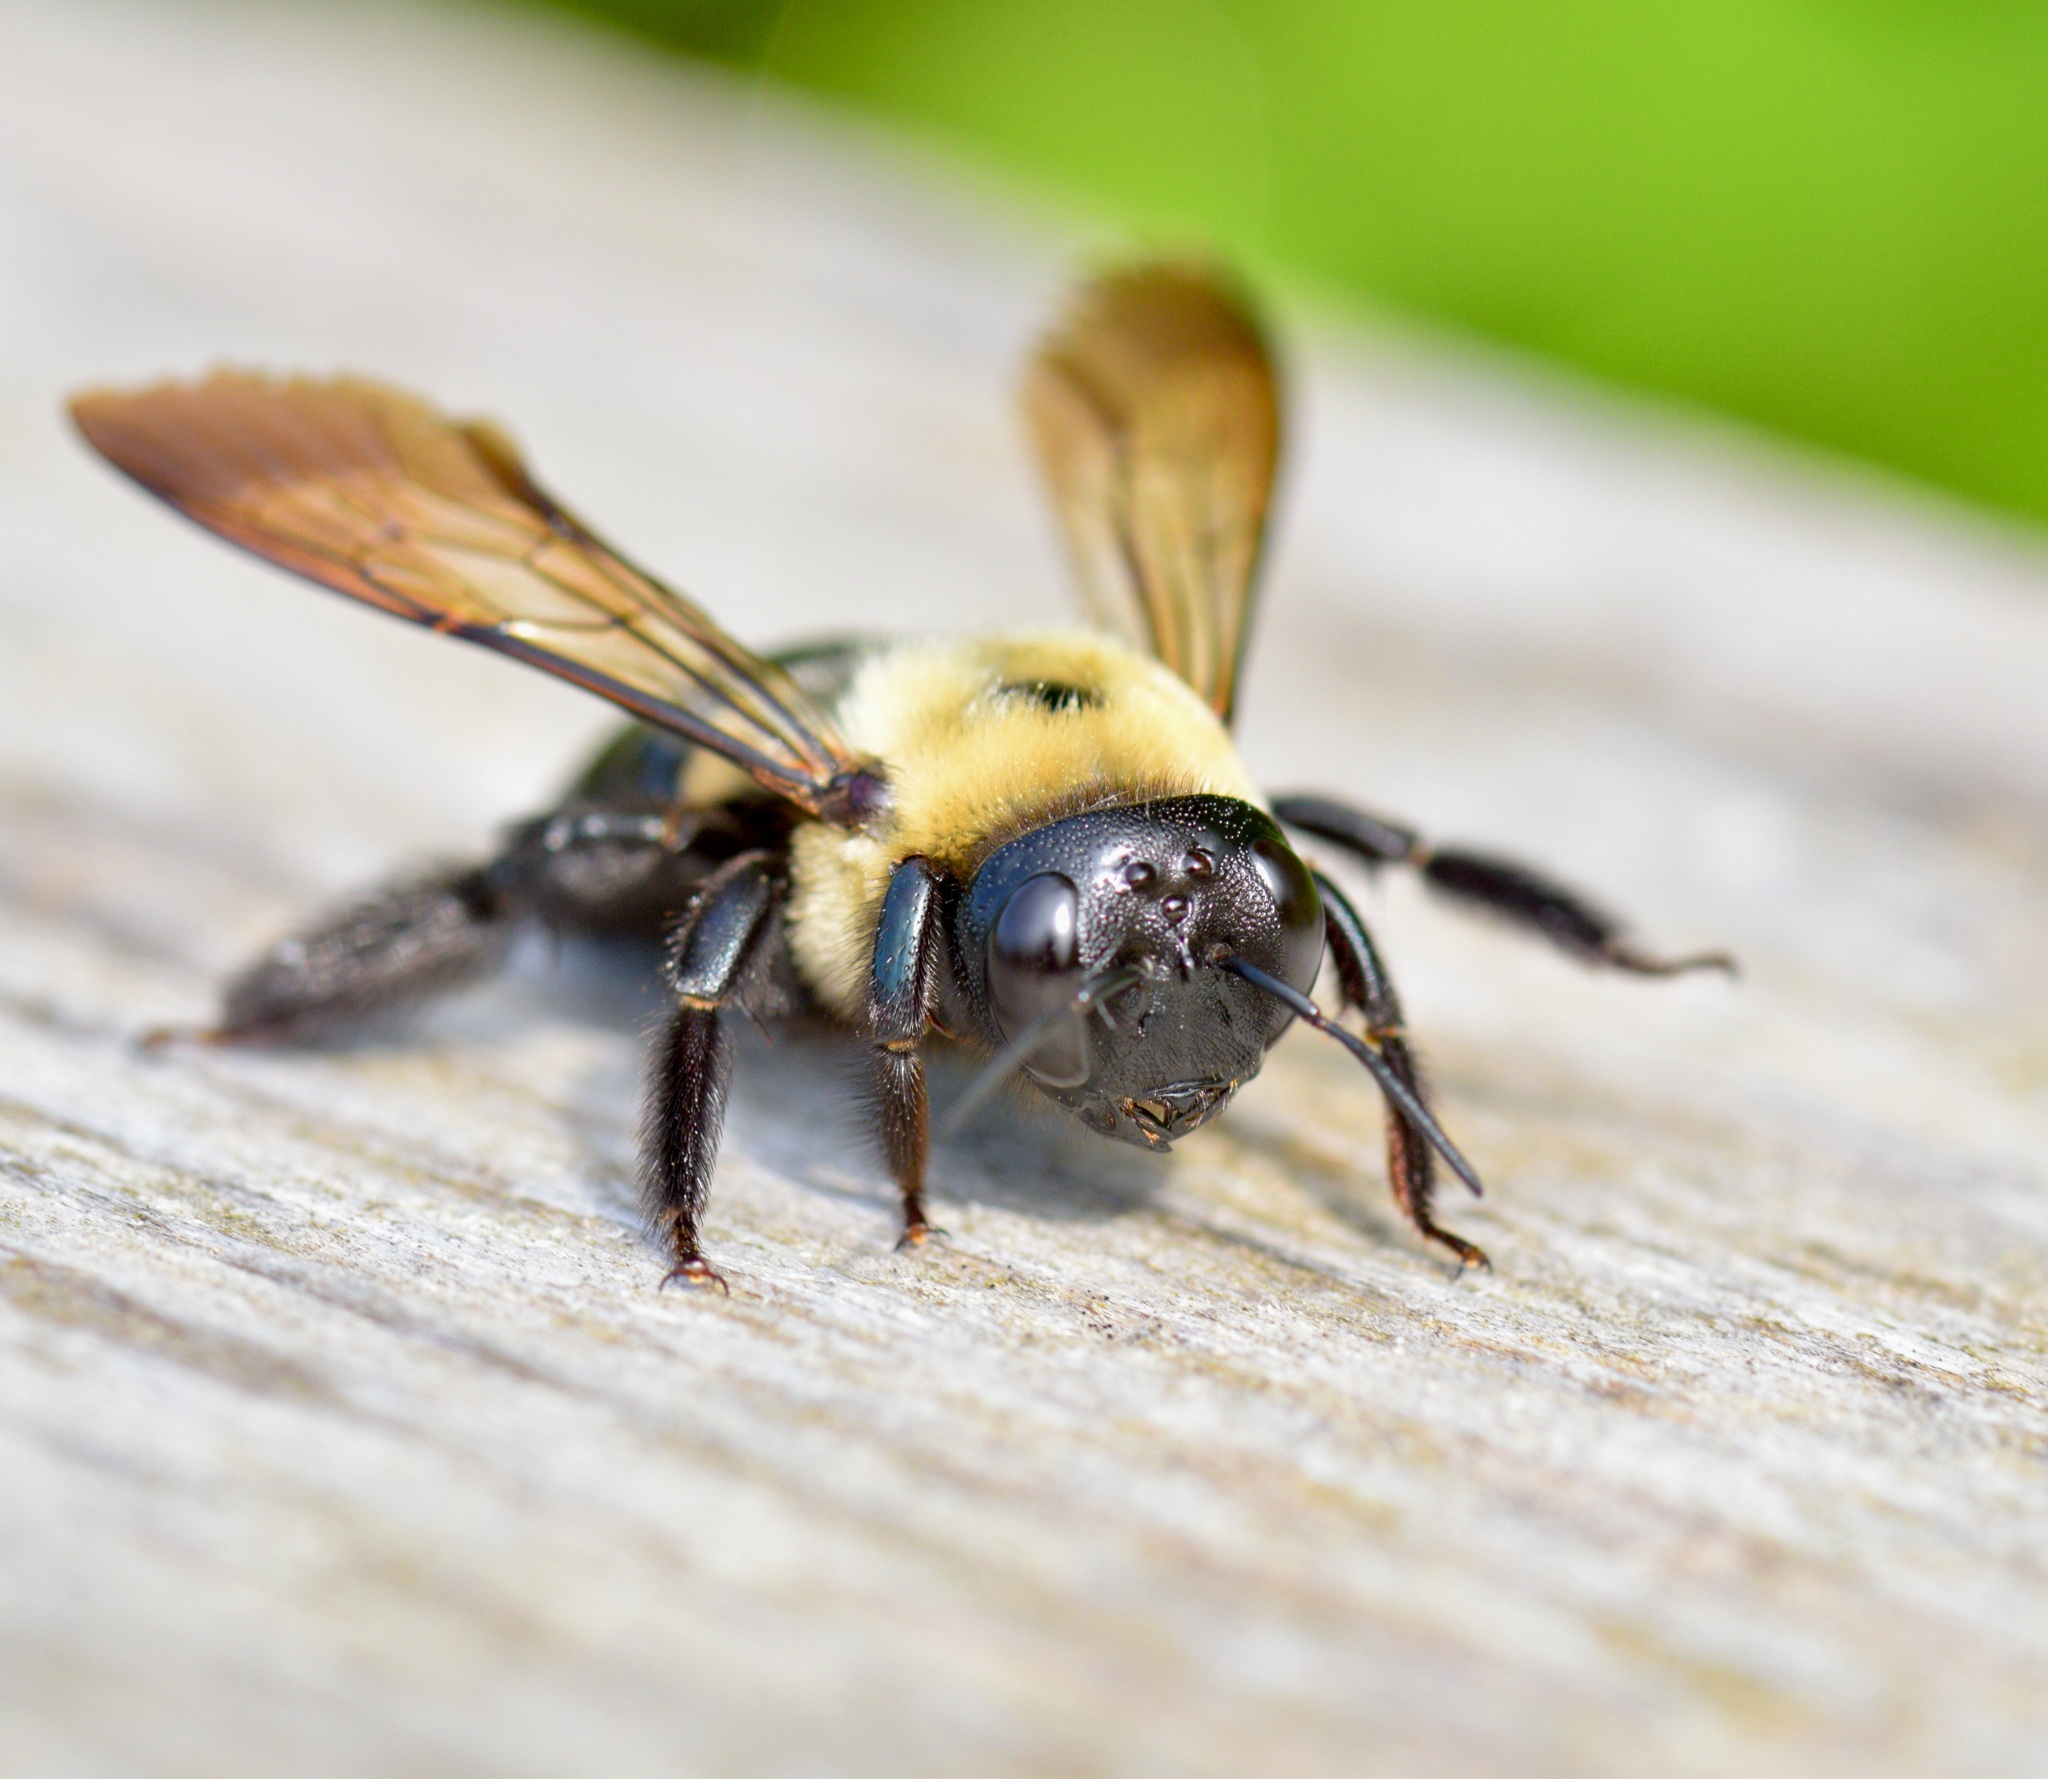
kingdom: Animalia
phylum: Arthropoda
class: Insecta
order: Hymenoptera
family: Apidae
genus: Xylocopa
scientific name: Xylocopa virginica
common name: Carpenter bee
